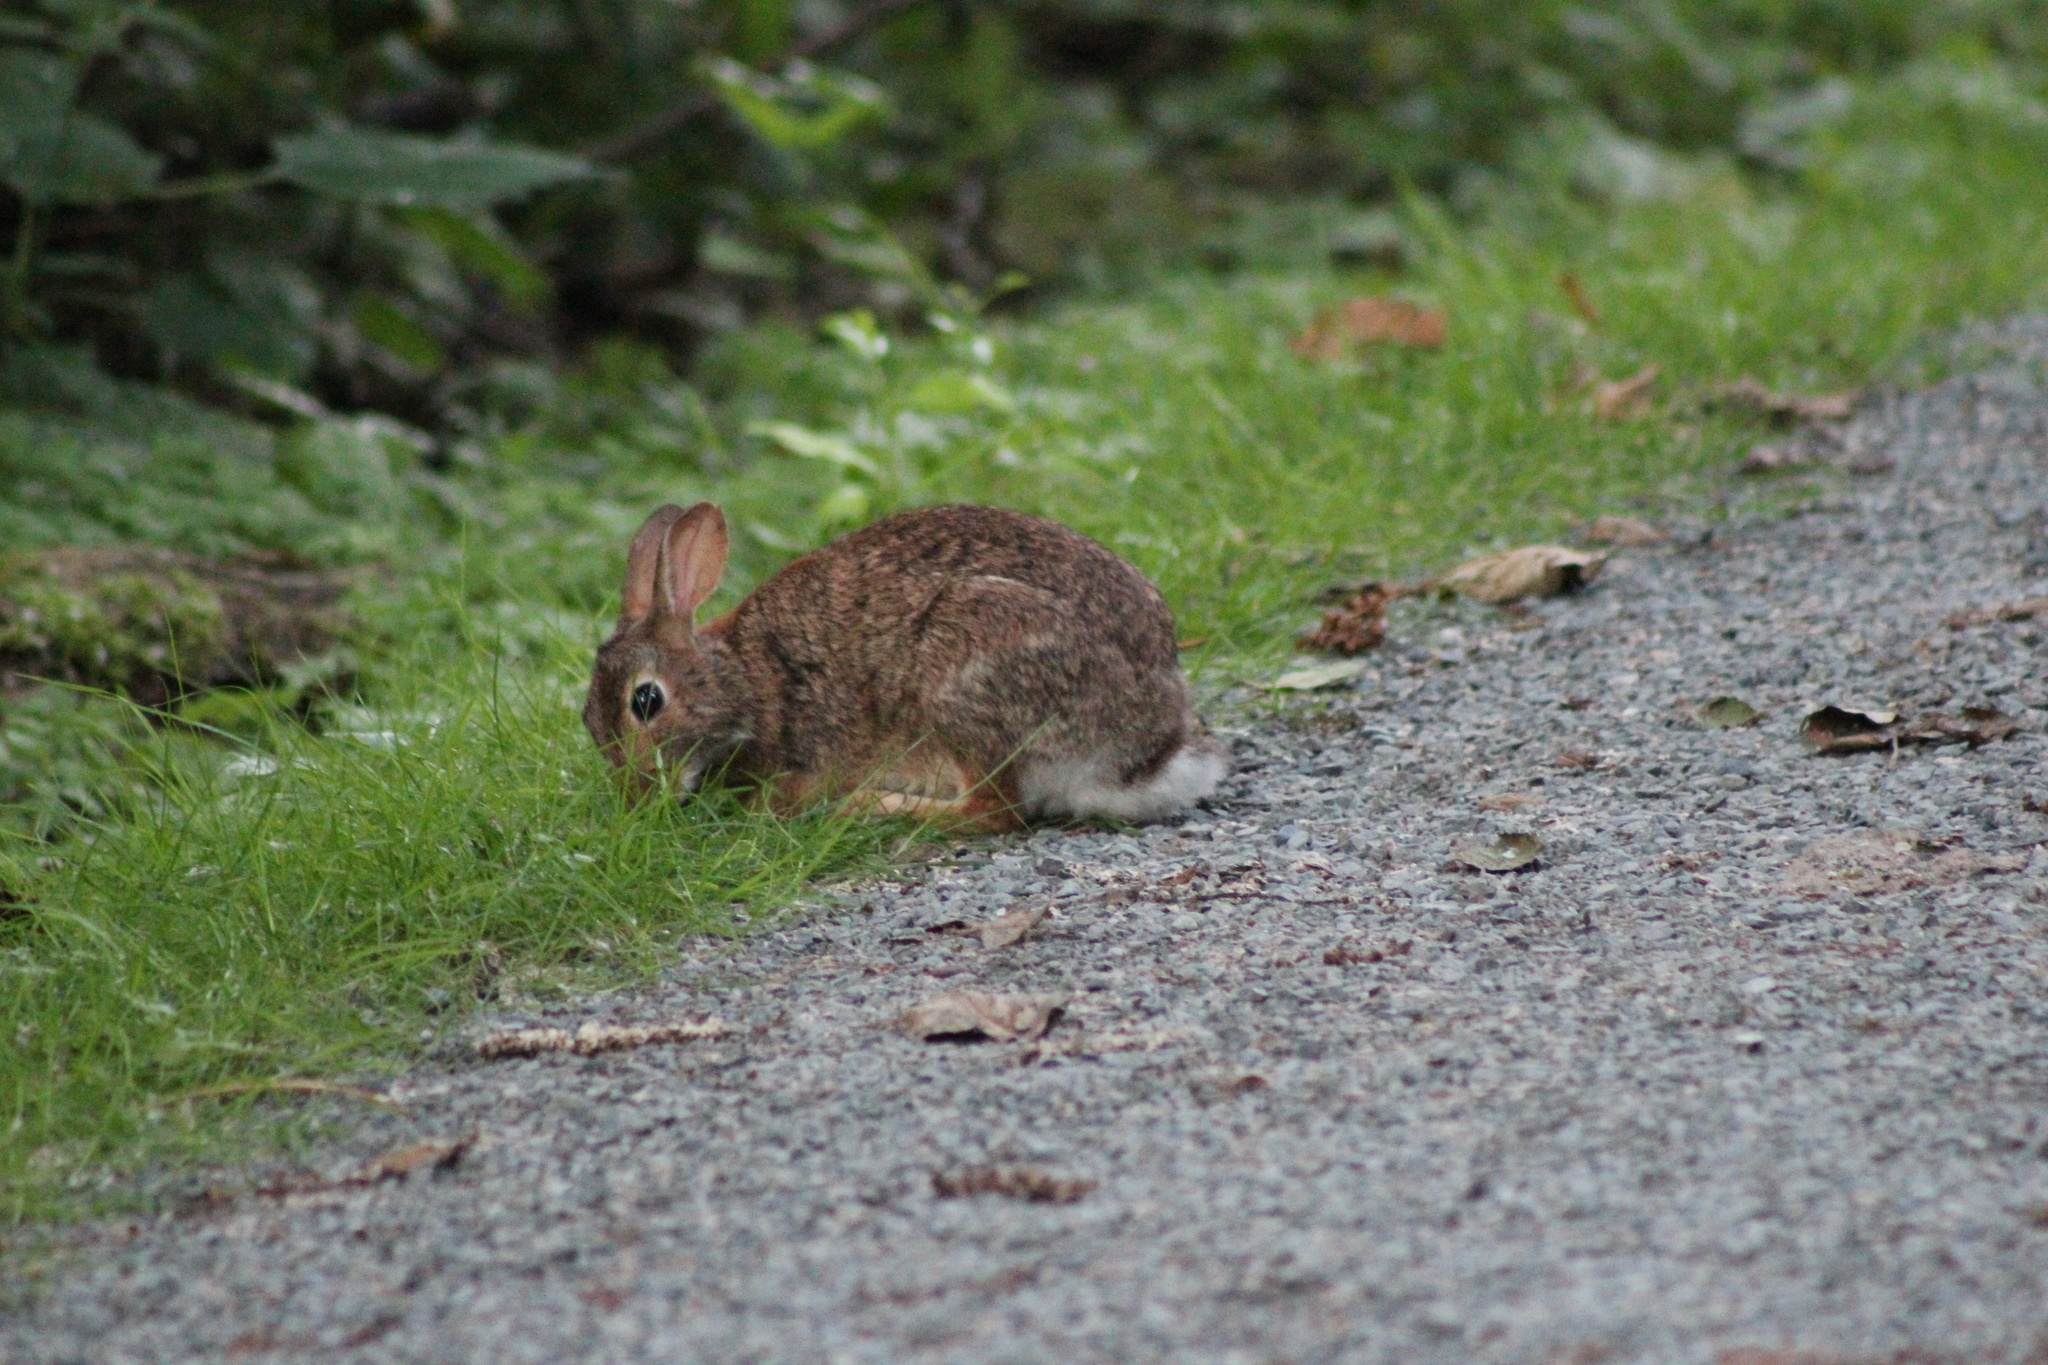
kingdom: Animalia
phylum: Chordata
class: Mammalia
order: Lagomorpha
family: Leporidae
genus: Sylvilagus
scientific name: Sylvilagus floridanus
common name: Eastern cottontail
